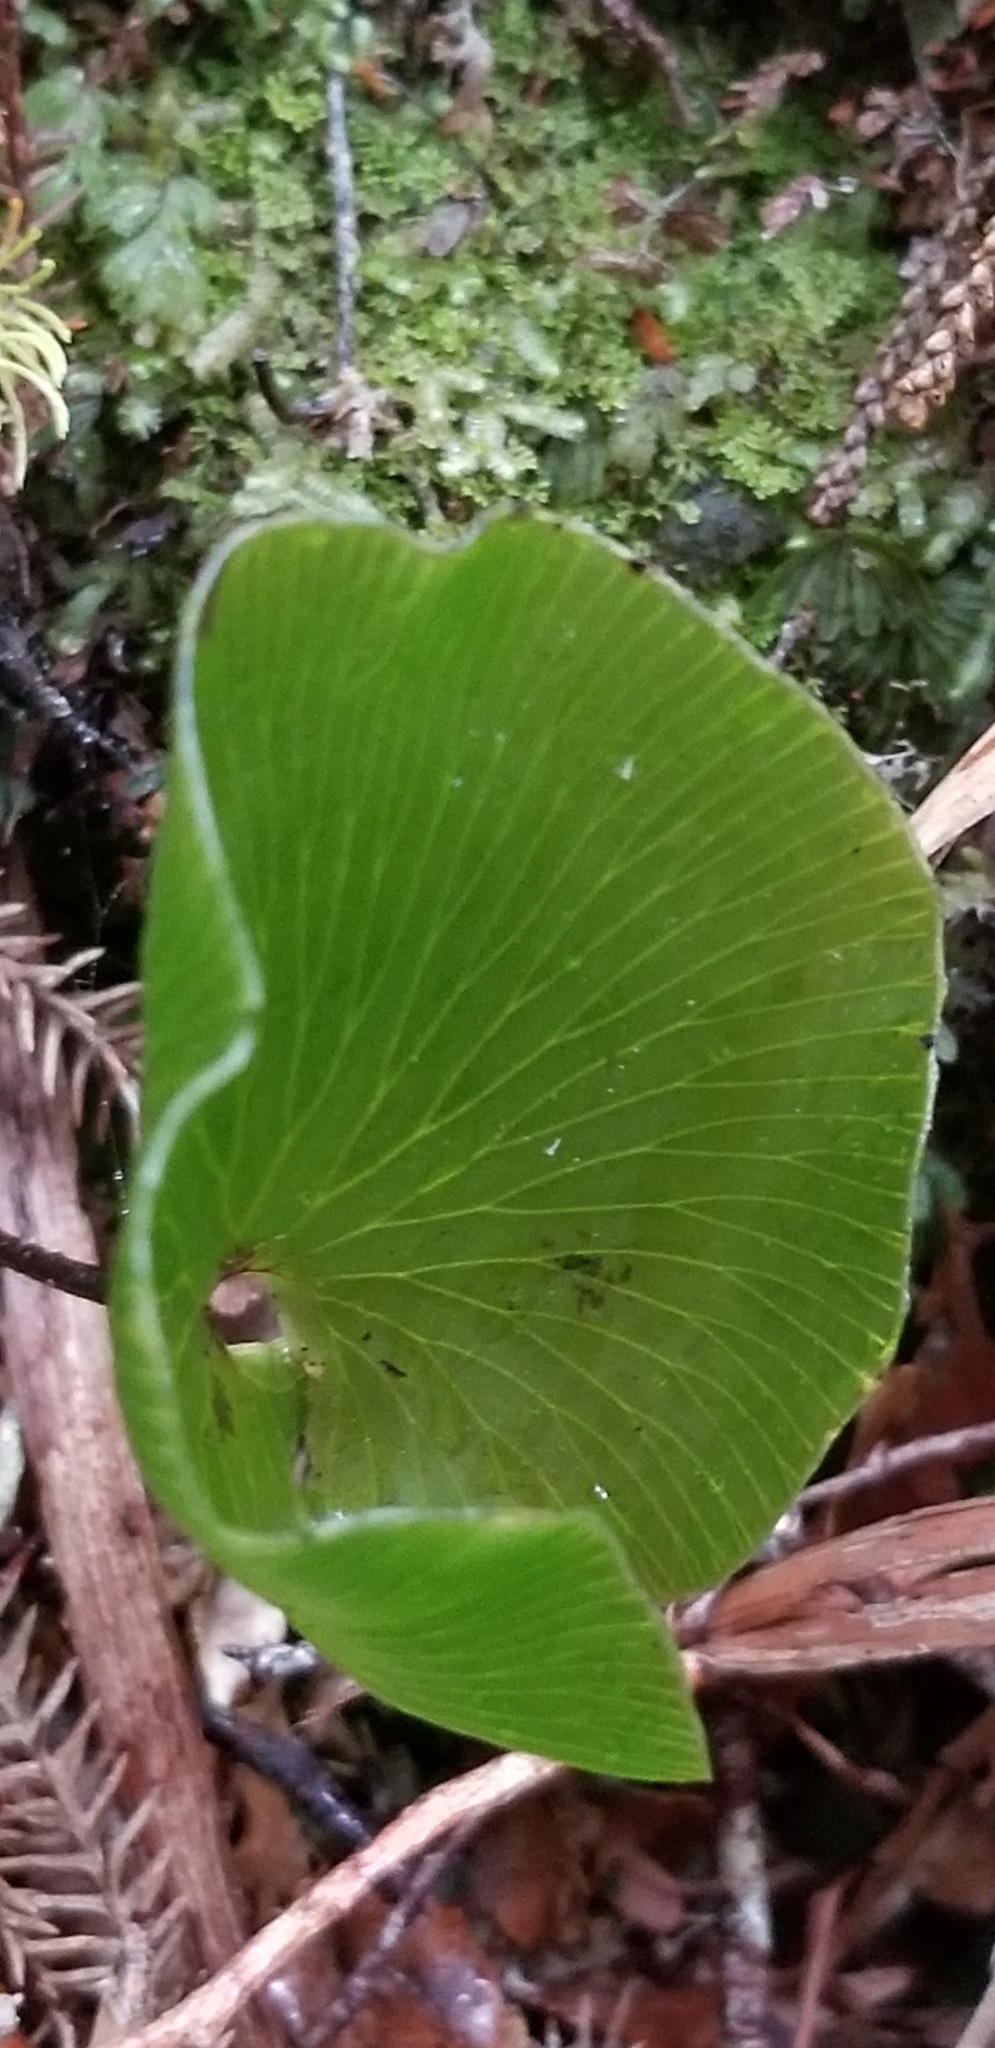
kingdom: Plantae
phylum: Tracheophyta
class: Polypodiopsida
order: Hymenophyllales
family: Hymenophyllaceae
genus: Hymenophyllum
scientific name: Hymenophyllum nephrophyllum
